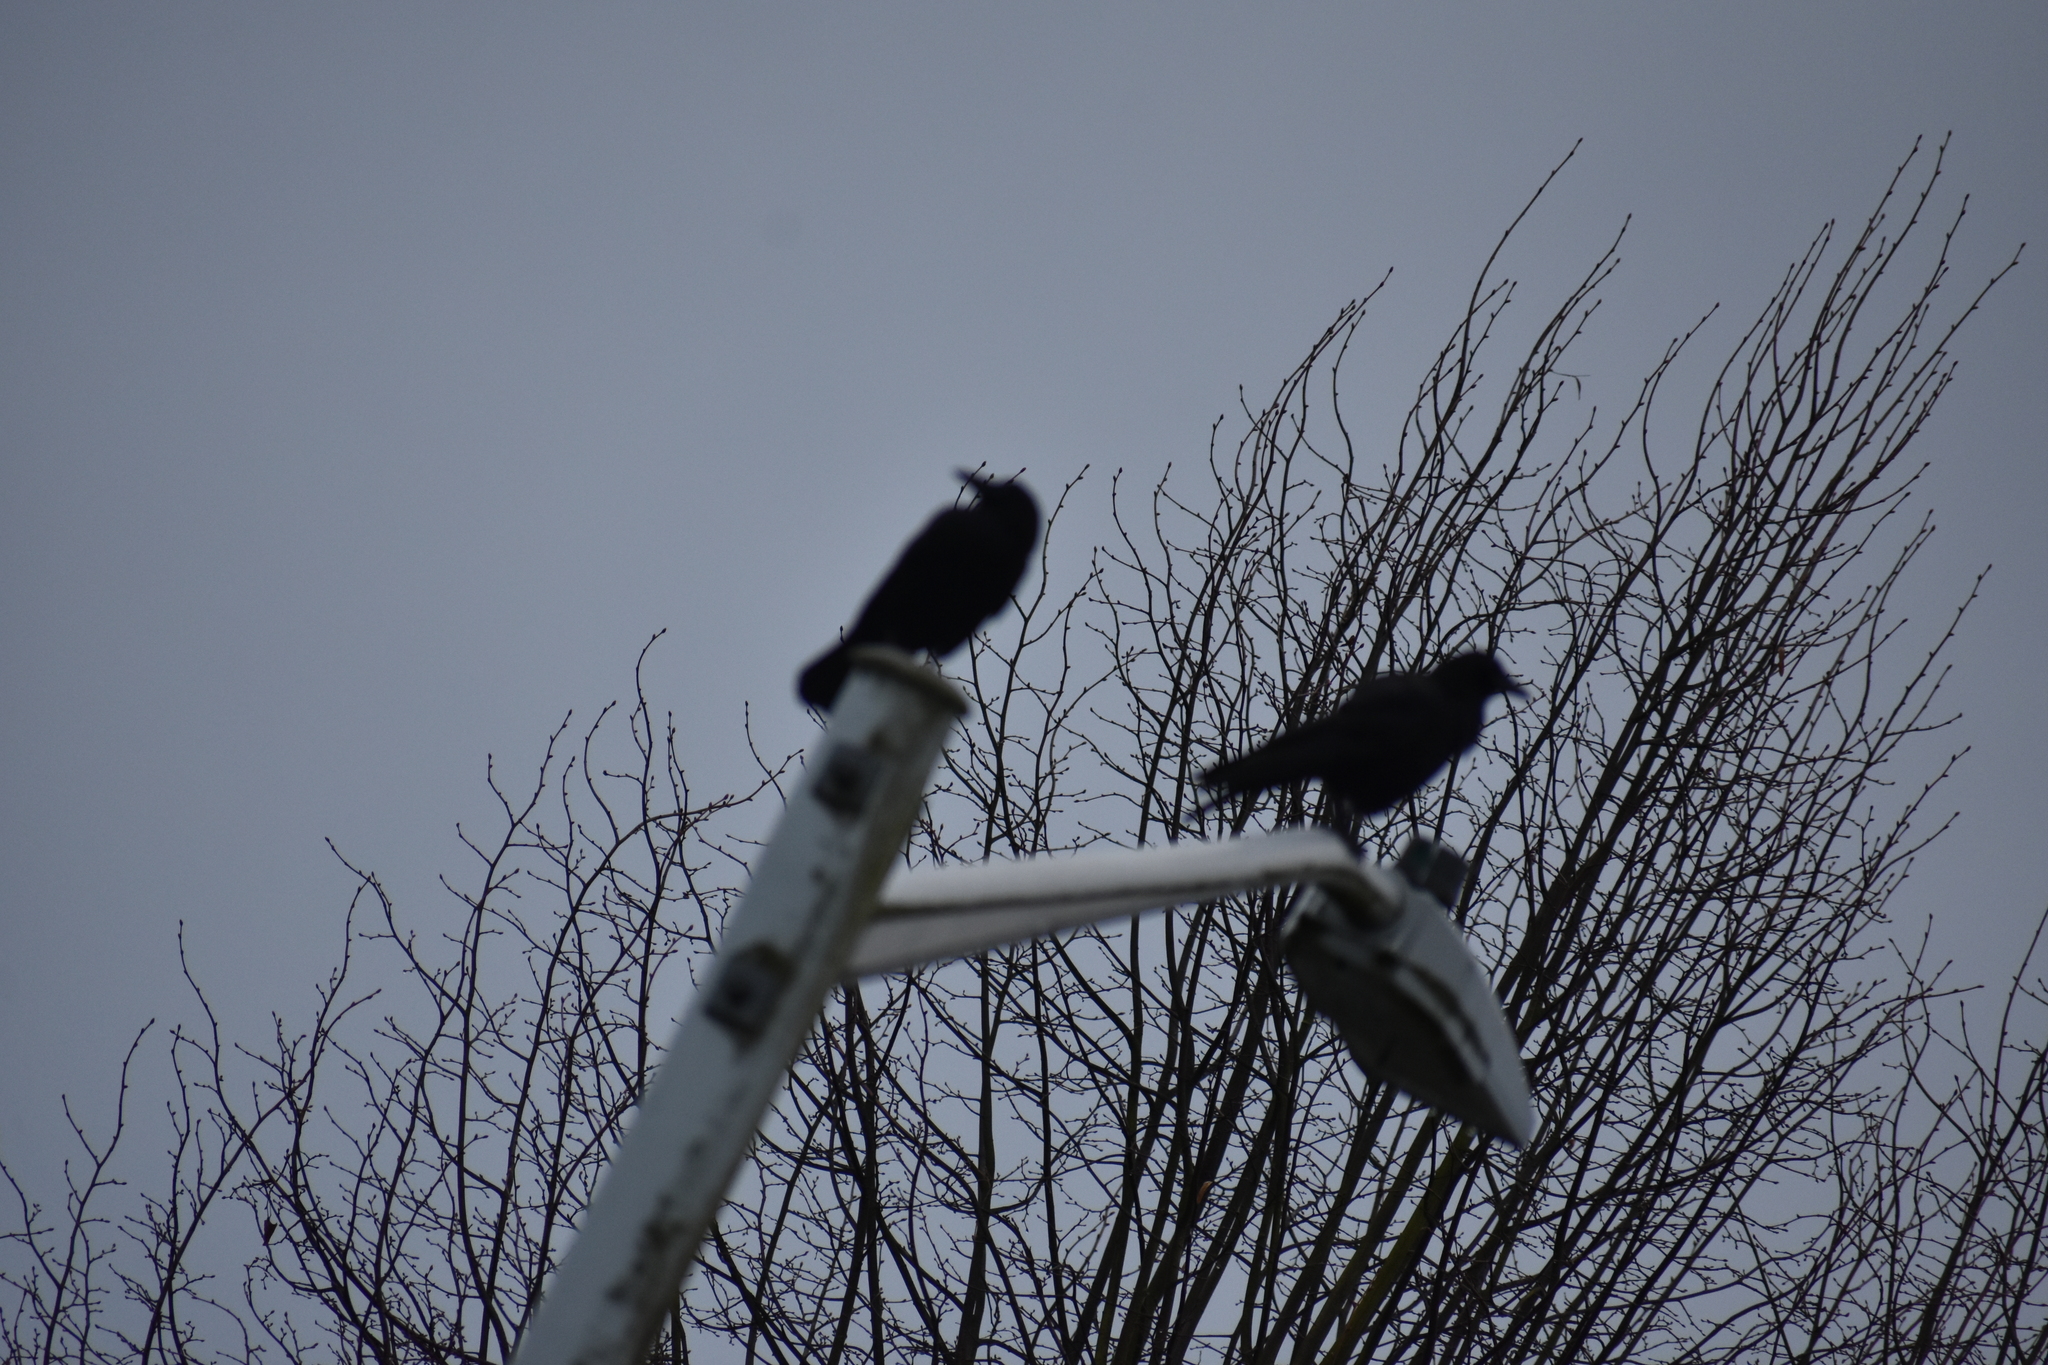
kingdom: Animalia
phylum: Chordata
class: Aves
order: Passeriformes
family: Corvidae
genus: Corvus
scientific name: Corvus brachyrhynchos
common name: American crow
